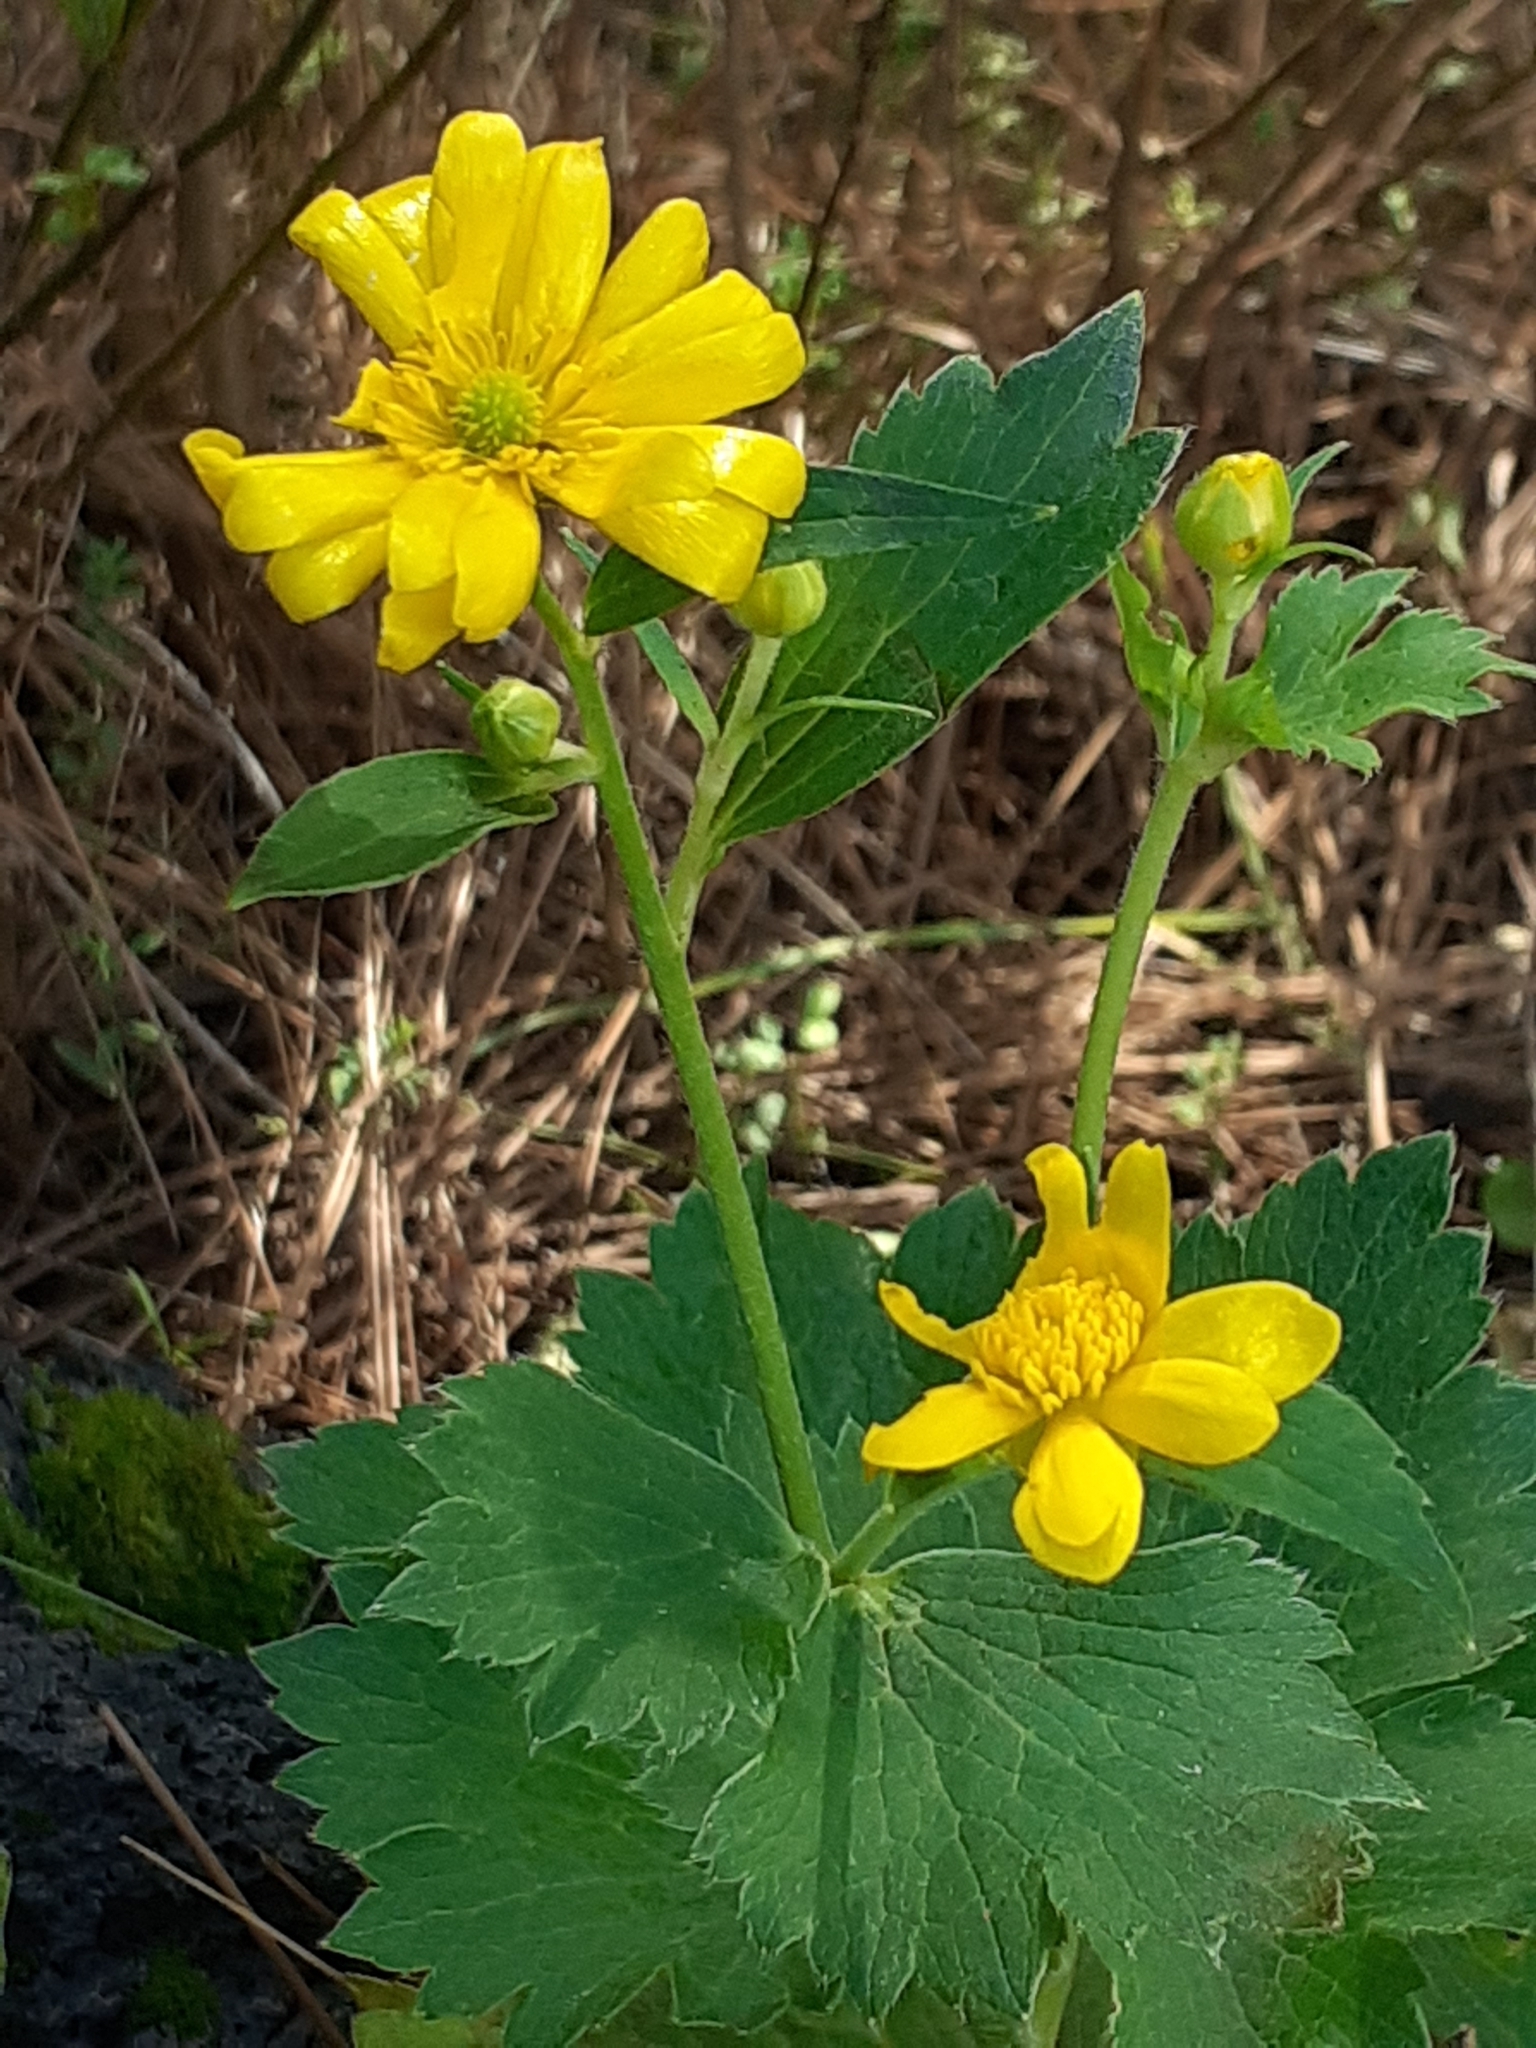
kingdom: Plantae
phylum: Tracheophyta
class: Magnoliopsida
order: Ranunculales
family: Ranunculaceae
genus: Ranunculus
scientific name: Ranunculus cortusifolius
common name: Azores buttercup
